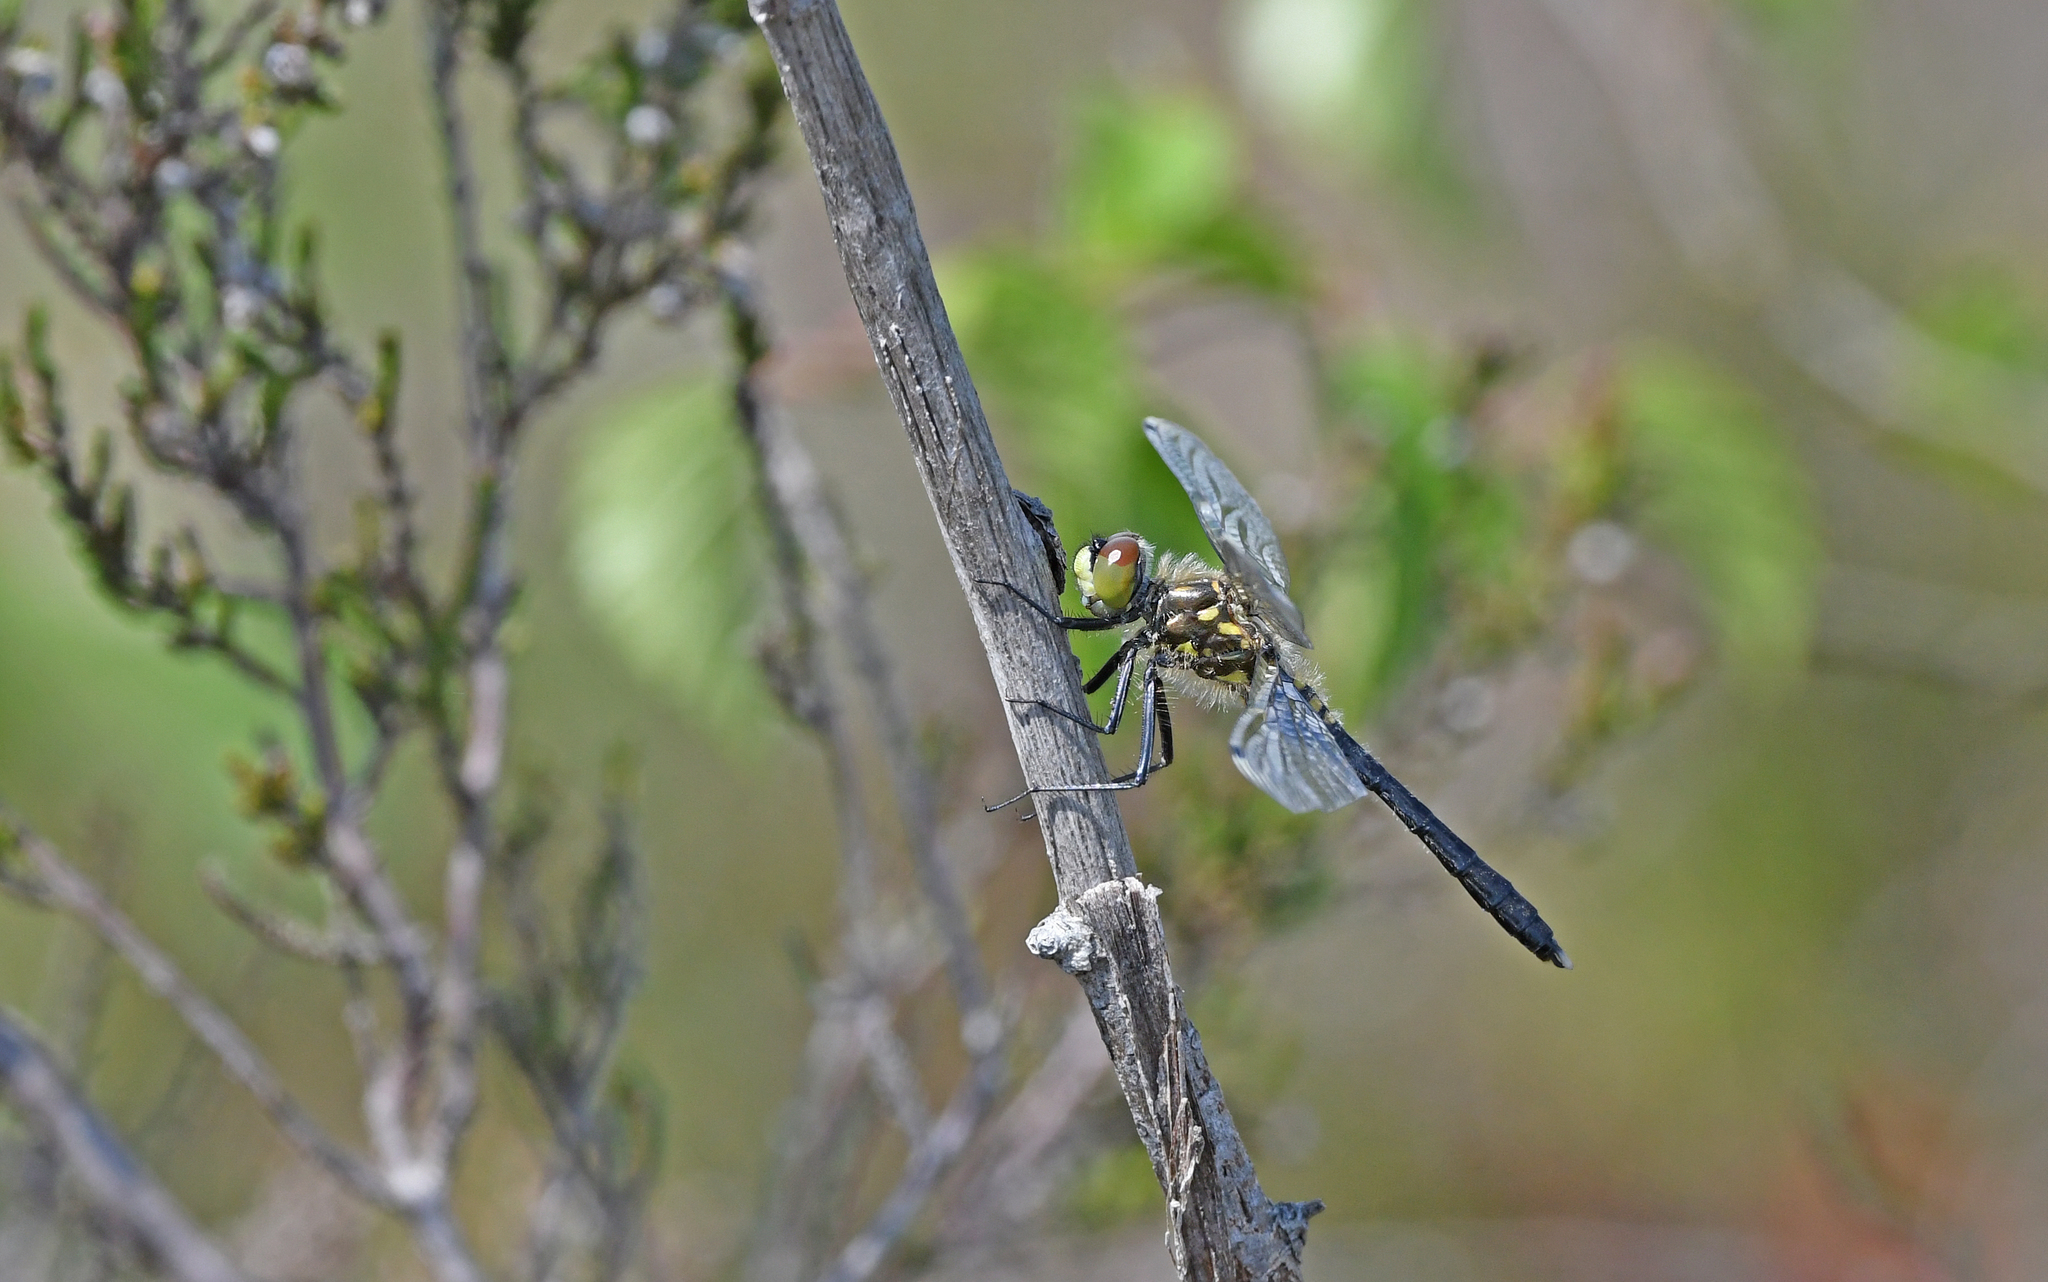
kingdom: Animalia
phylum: Arthropoda
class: Insecta
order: Odonata
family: Libellulidae
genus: Leucorrhinia
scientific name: Leucorrhinia albifrons
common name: Dark whiteface
